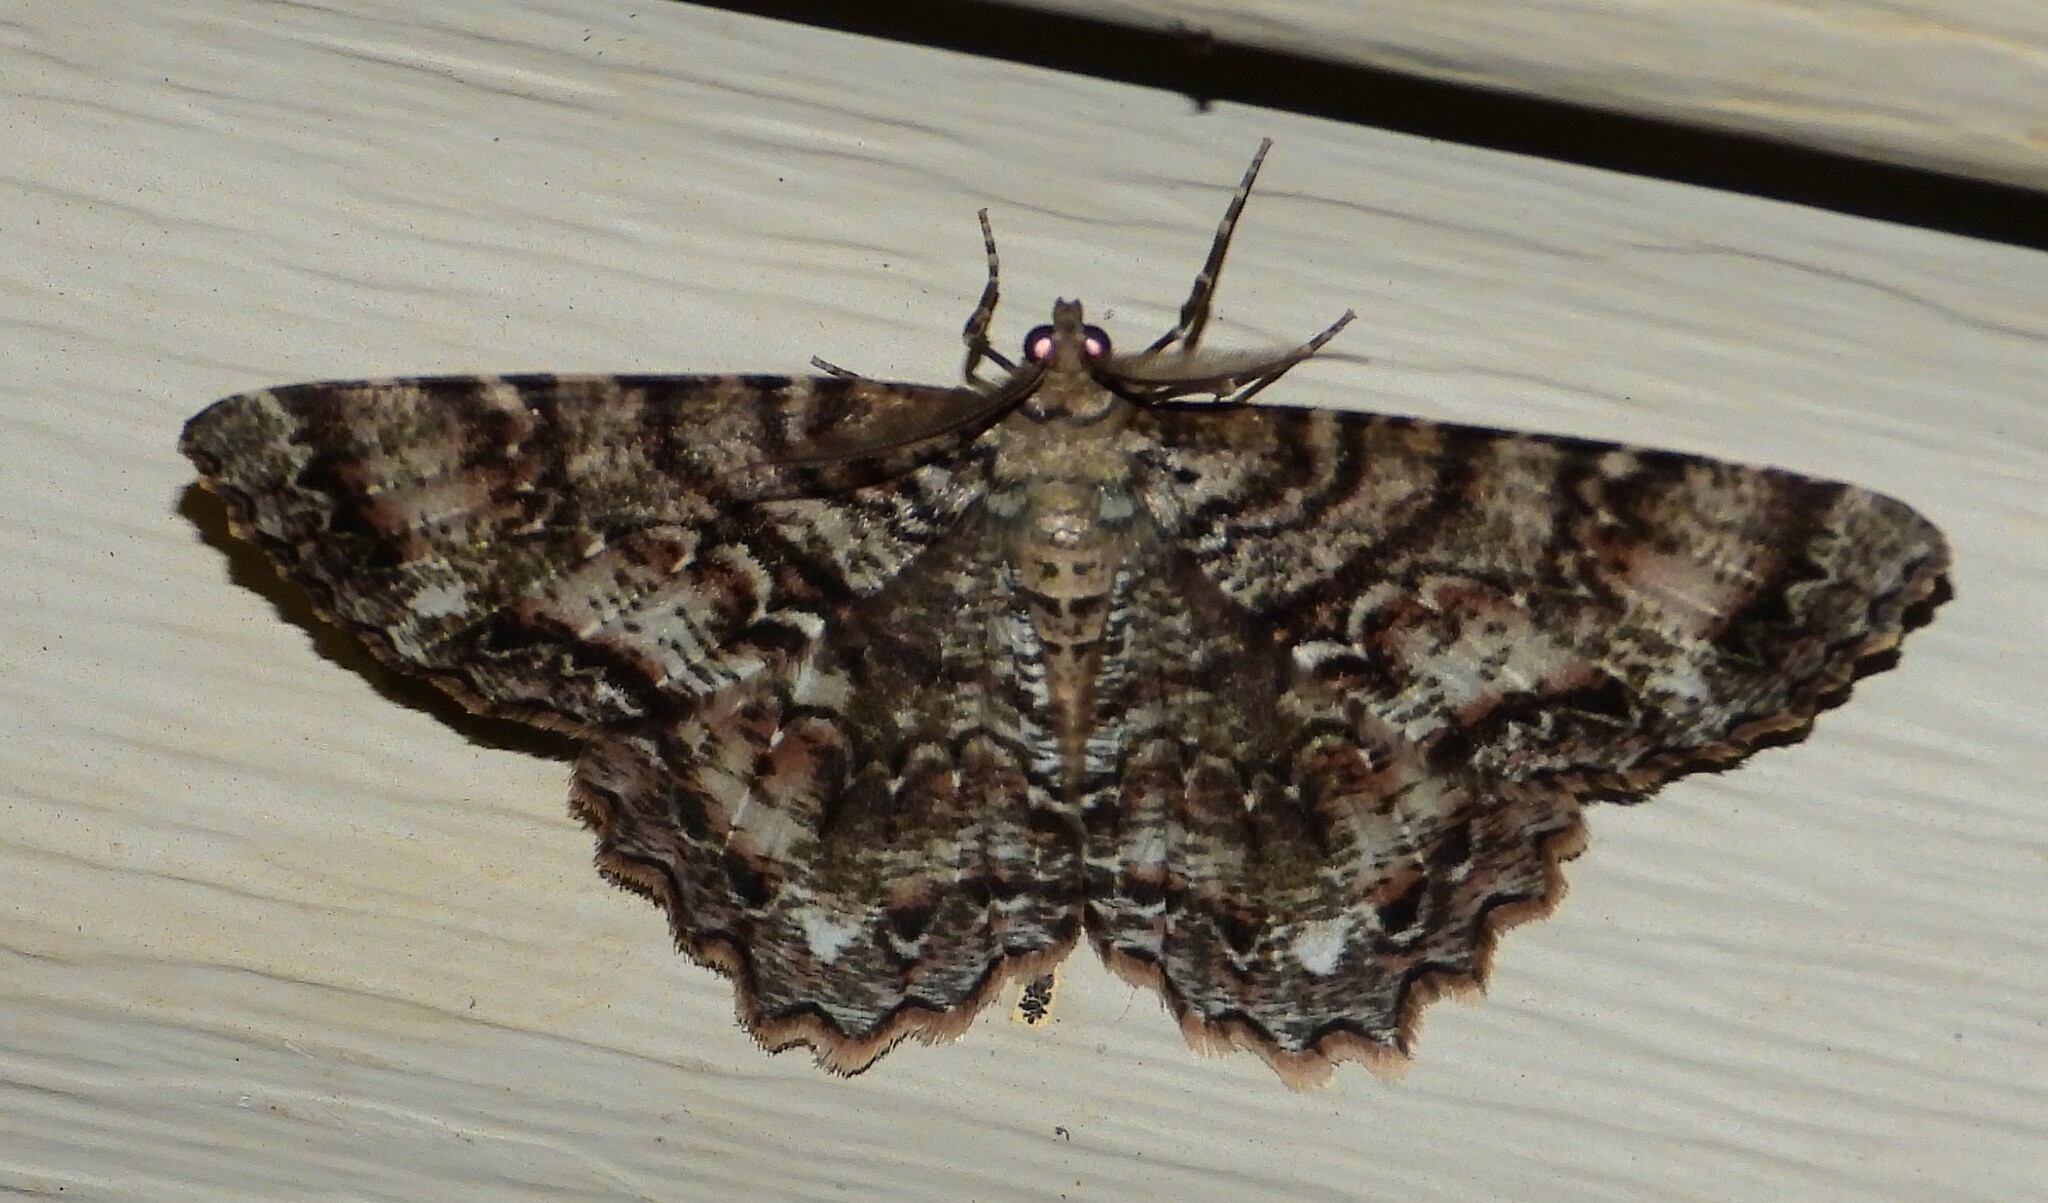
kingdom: Animalia
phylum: Arthropoda
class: Insecta
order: Lepidoptera
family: Geometridae
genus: Epimecis
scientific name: Epimecis hortaria
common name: Tulip-tree beauty
